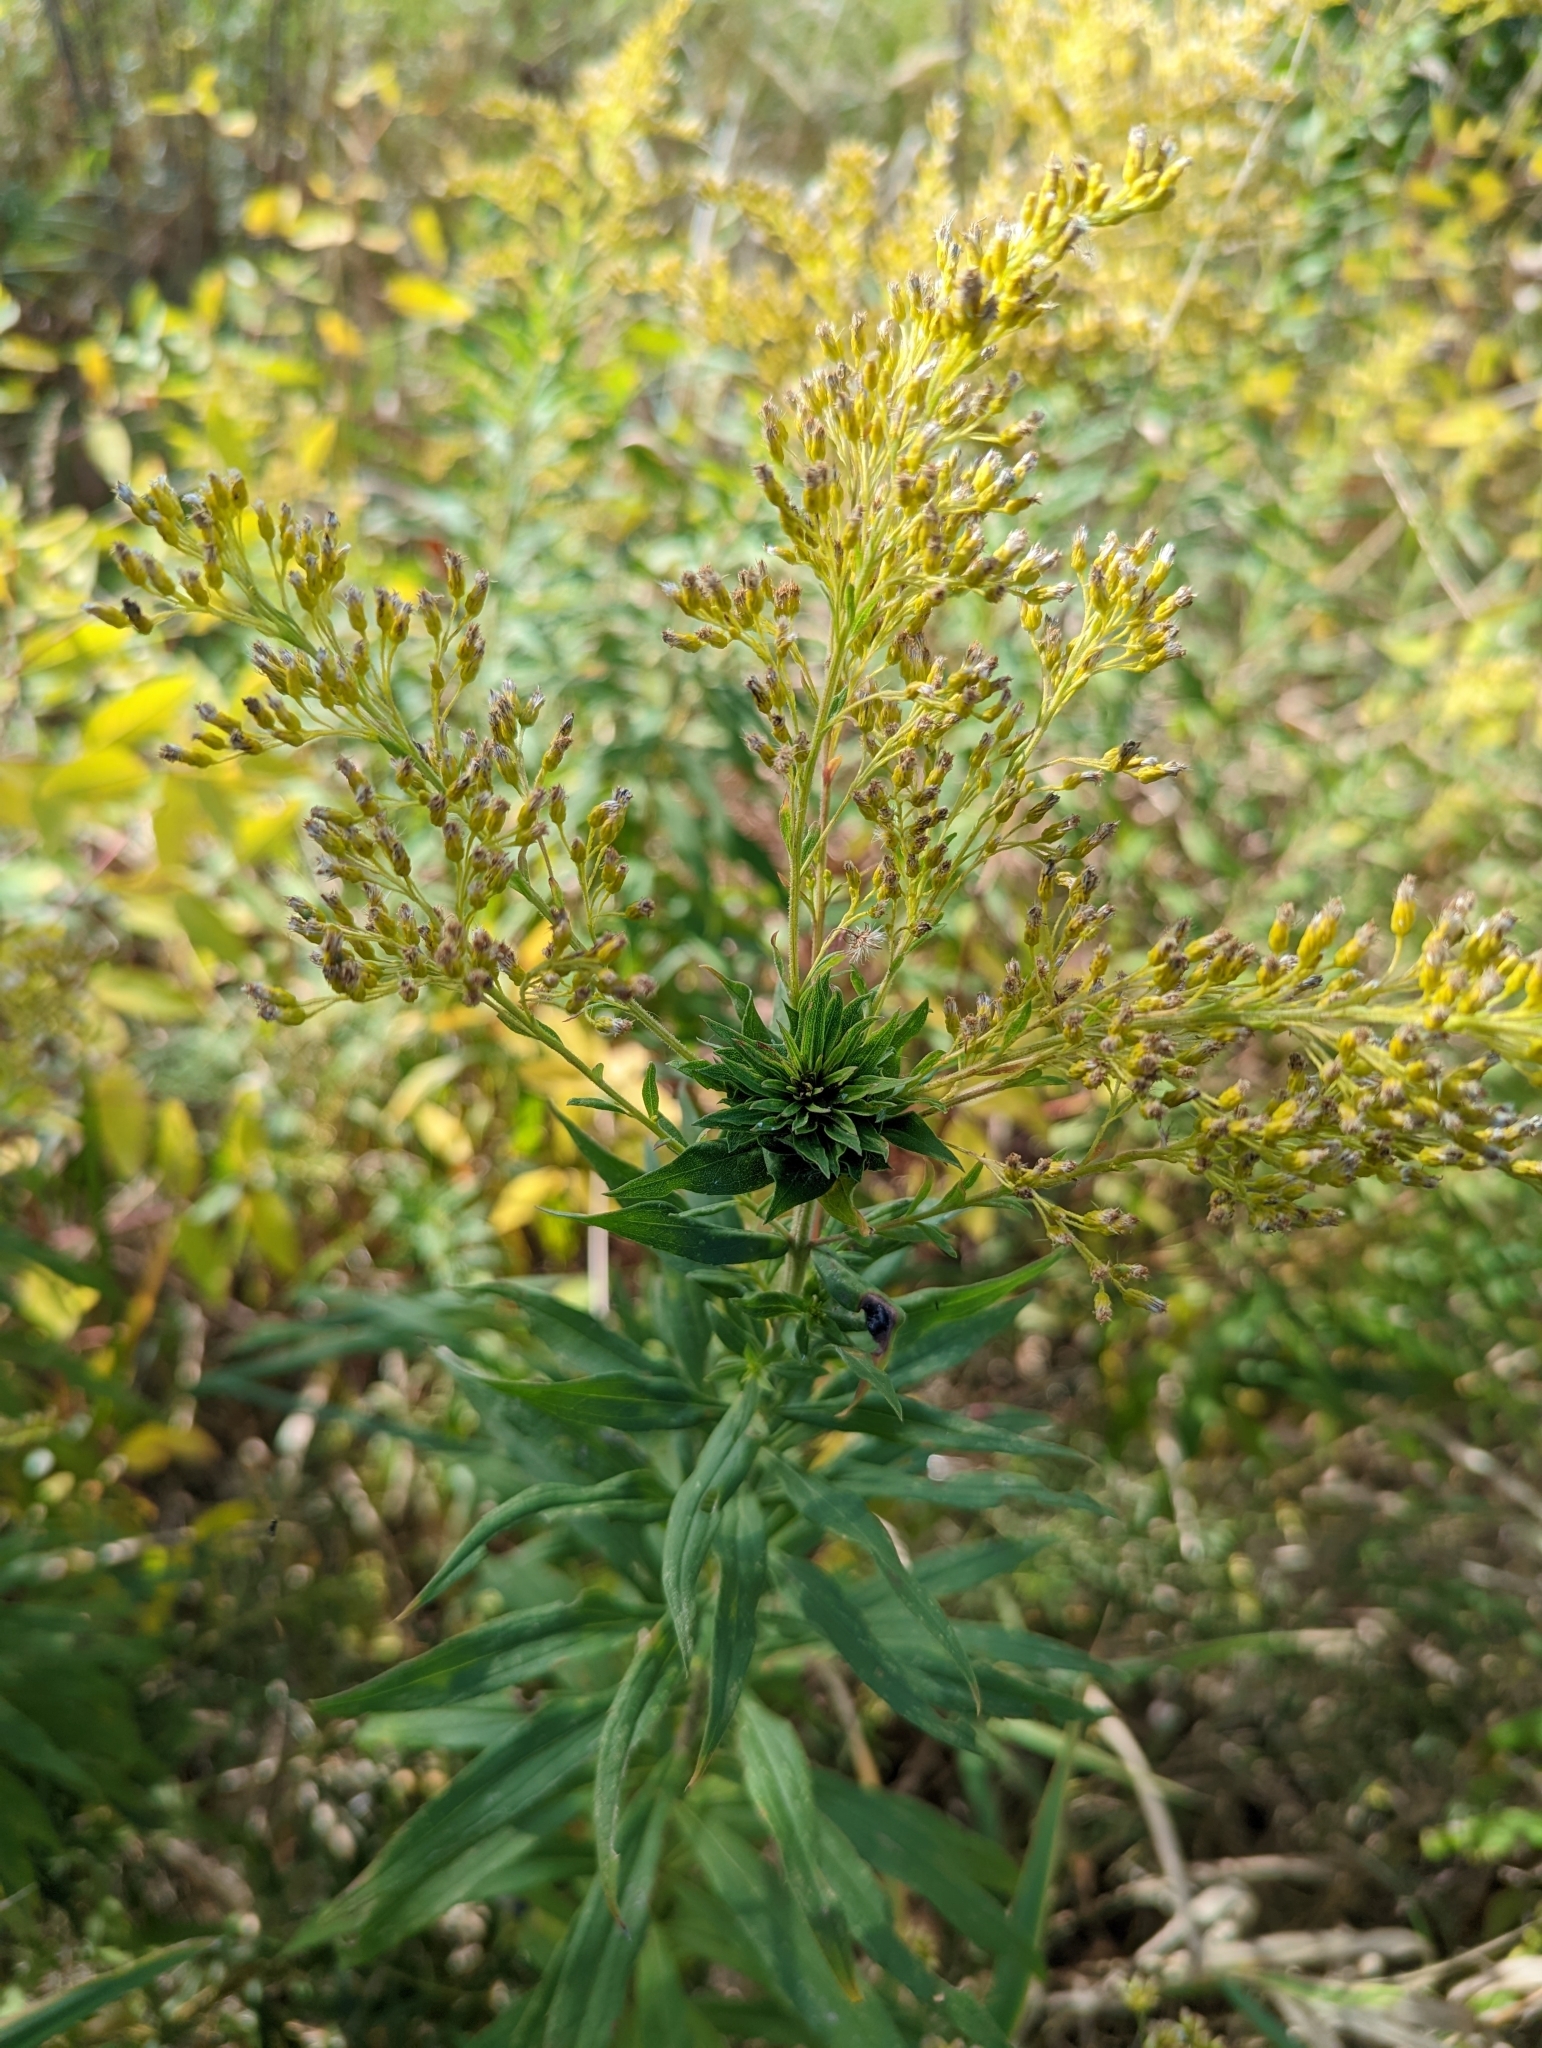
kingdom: Animalia
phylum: Arthropoda
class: Insecta
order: Diptera
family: Cecidomyiidae
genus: Rhopalomyia
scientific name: Rhopalomyia solidaginis
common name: Goldenrod bunch gall midge
